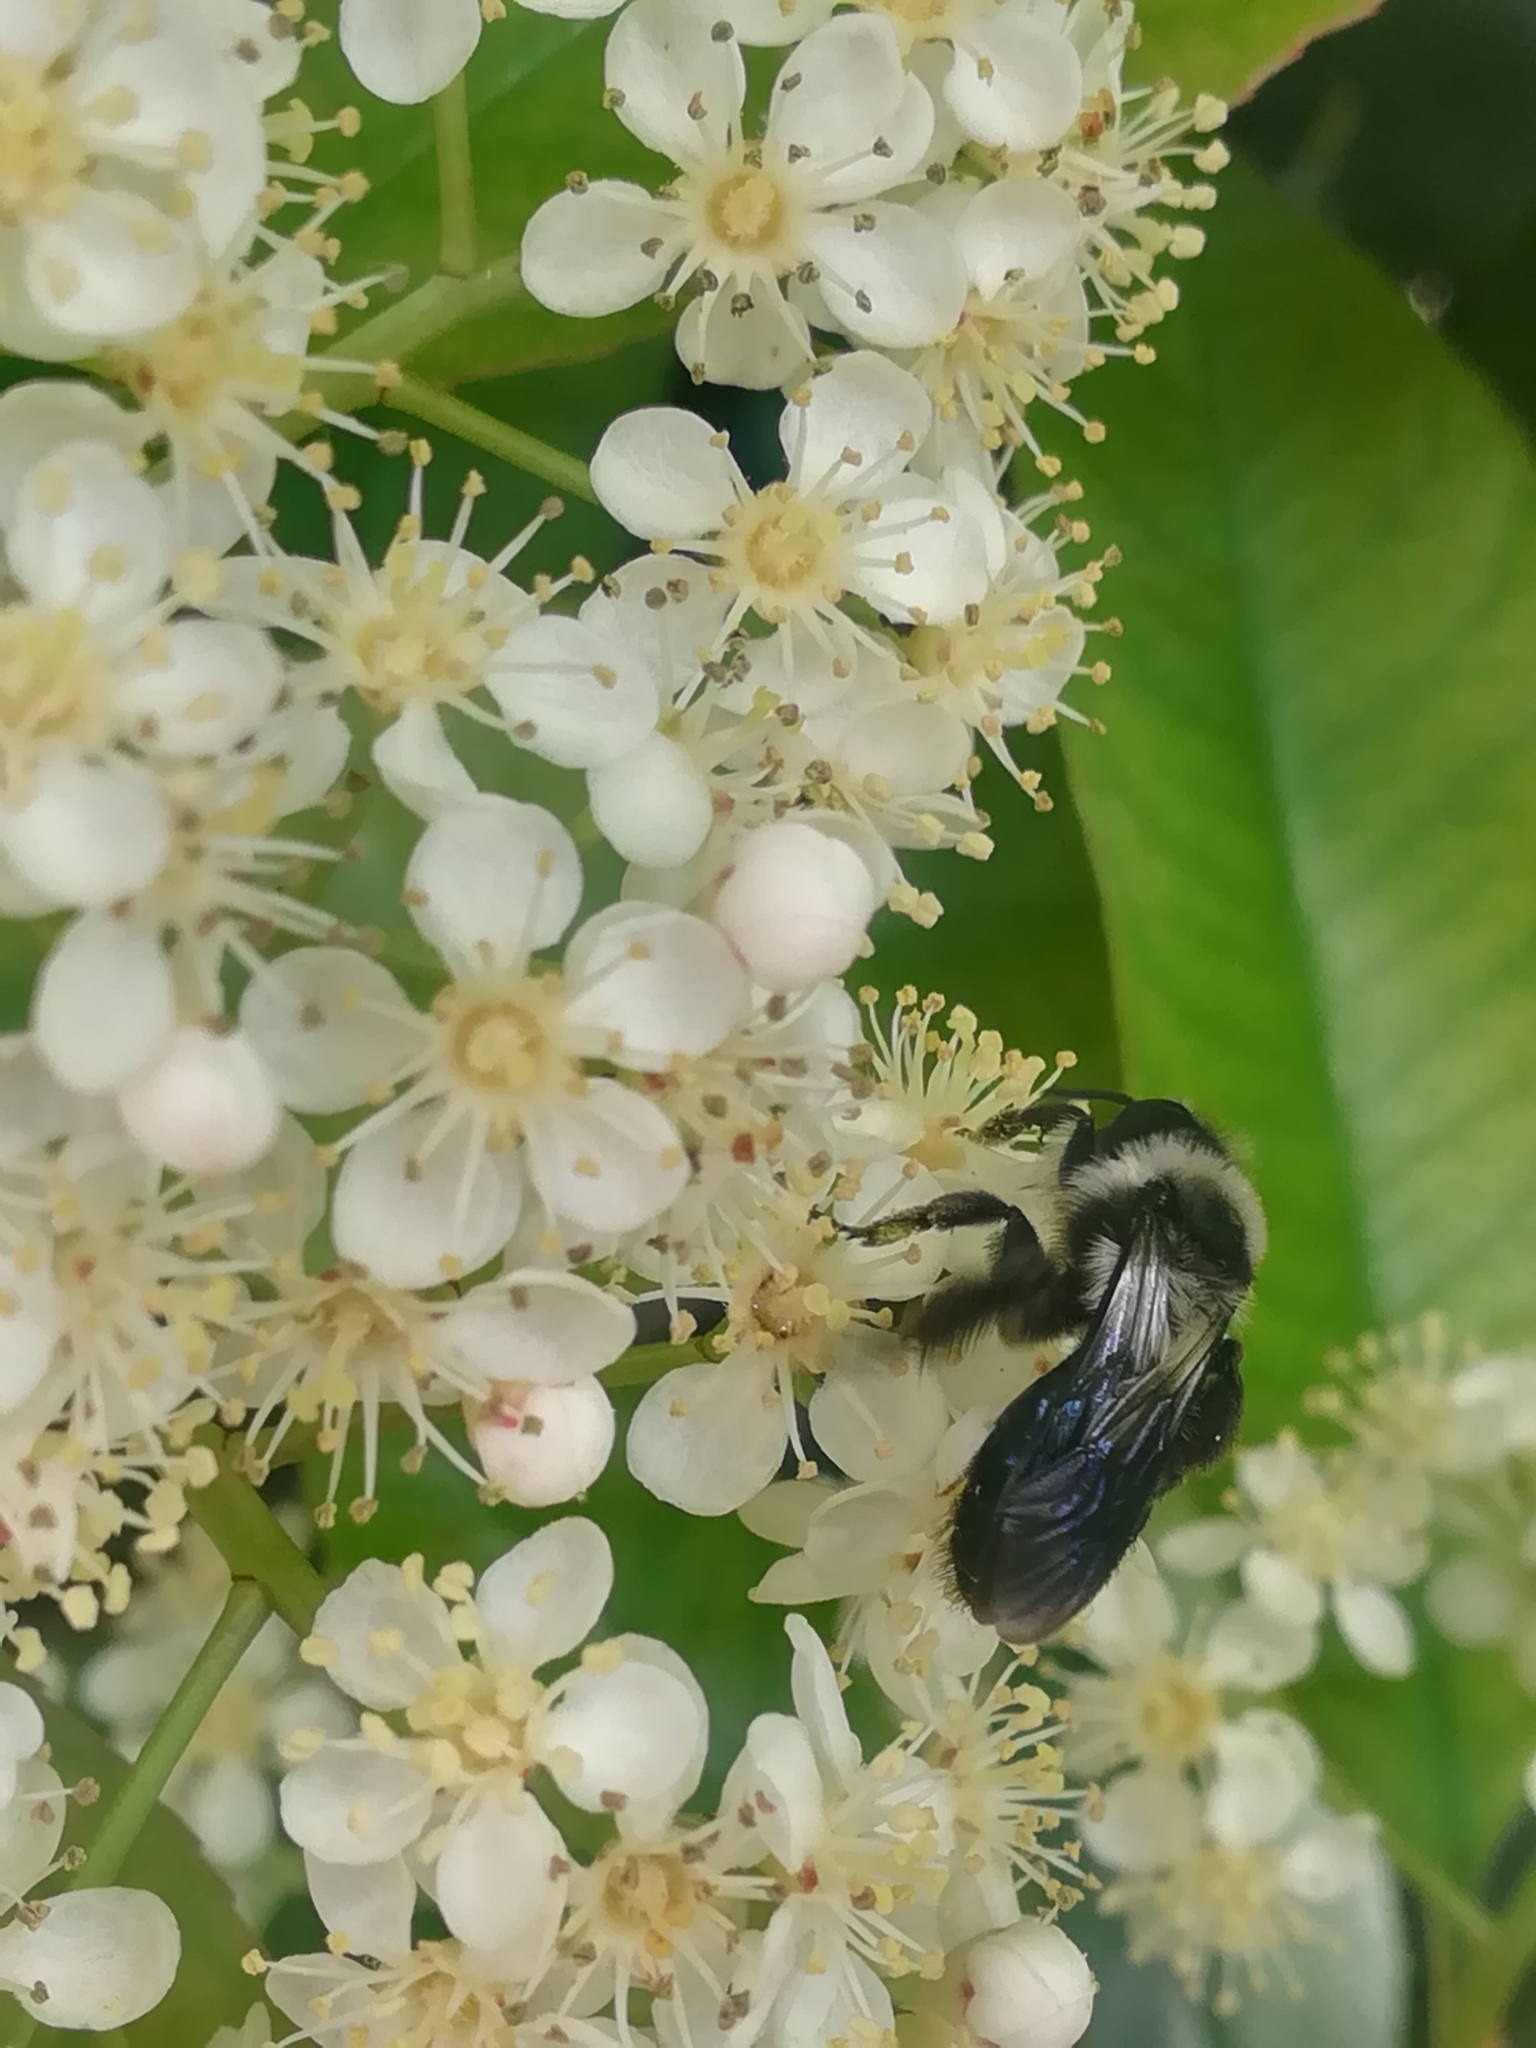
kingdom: Animalia
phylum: Arthropoda
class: Insecta
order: Hymenoptera
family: Andrenidae
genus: Andrena
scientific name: Andrena cineraria
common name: Ashy mining bee
